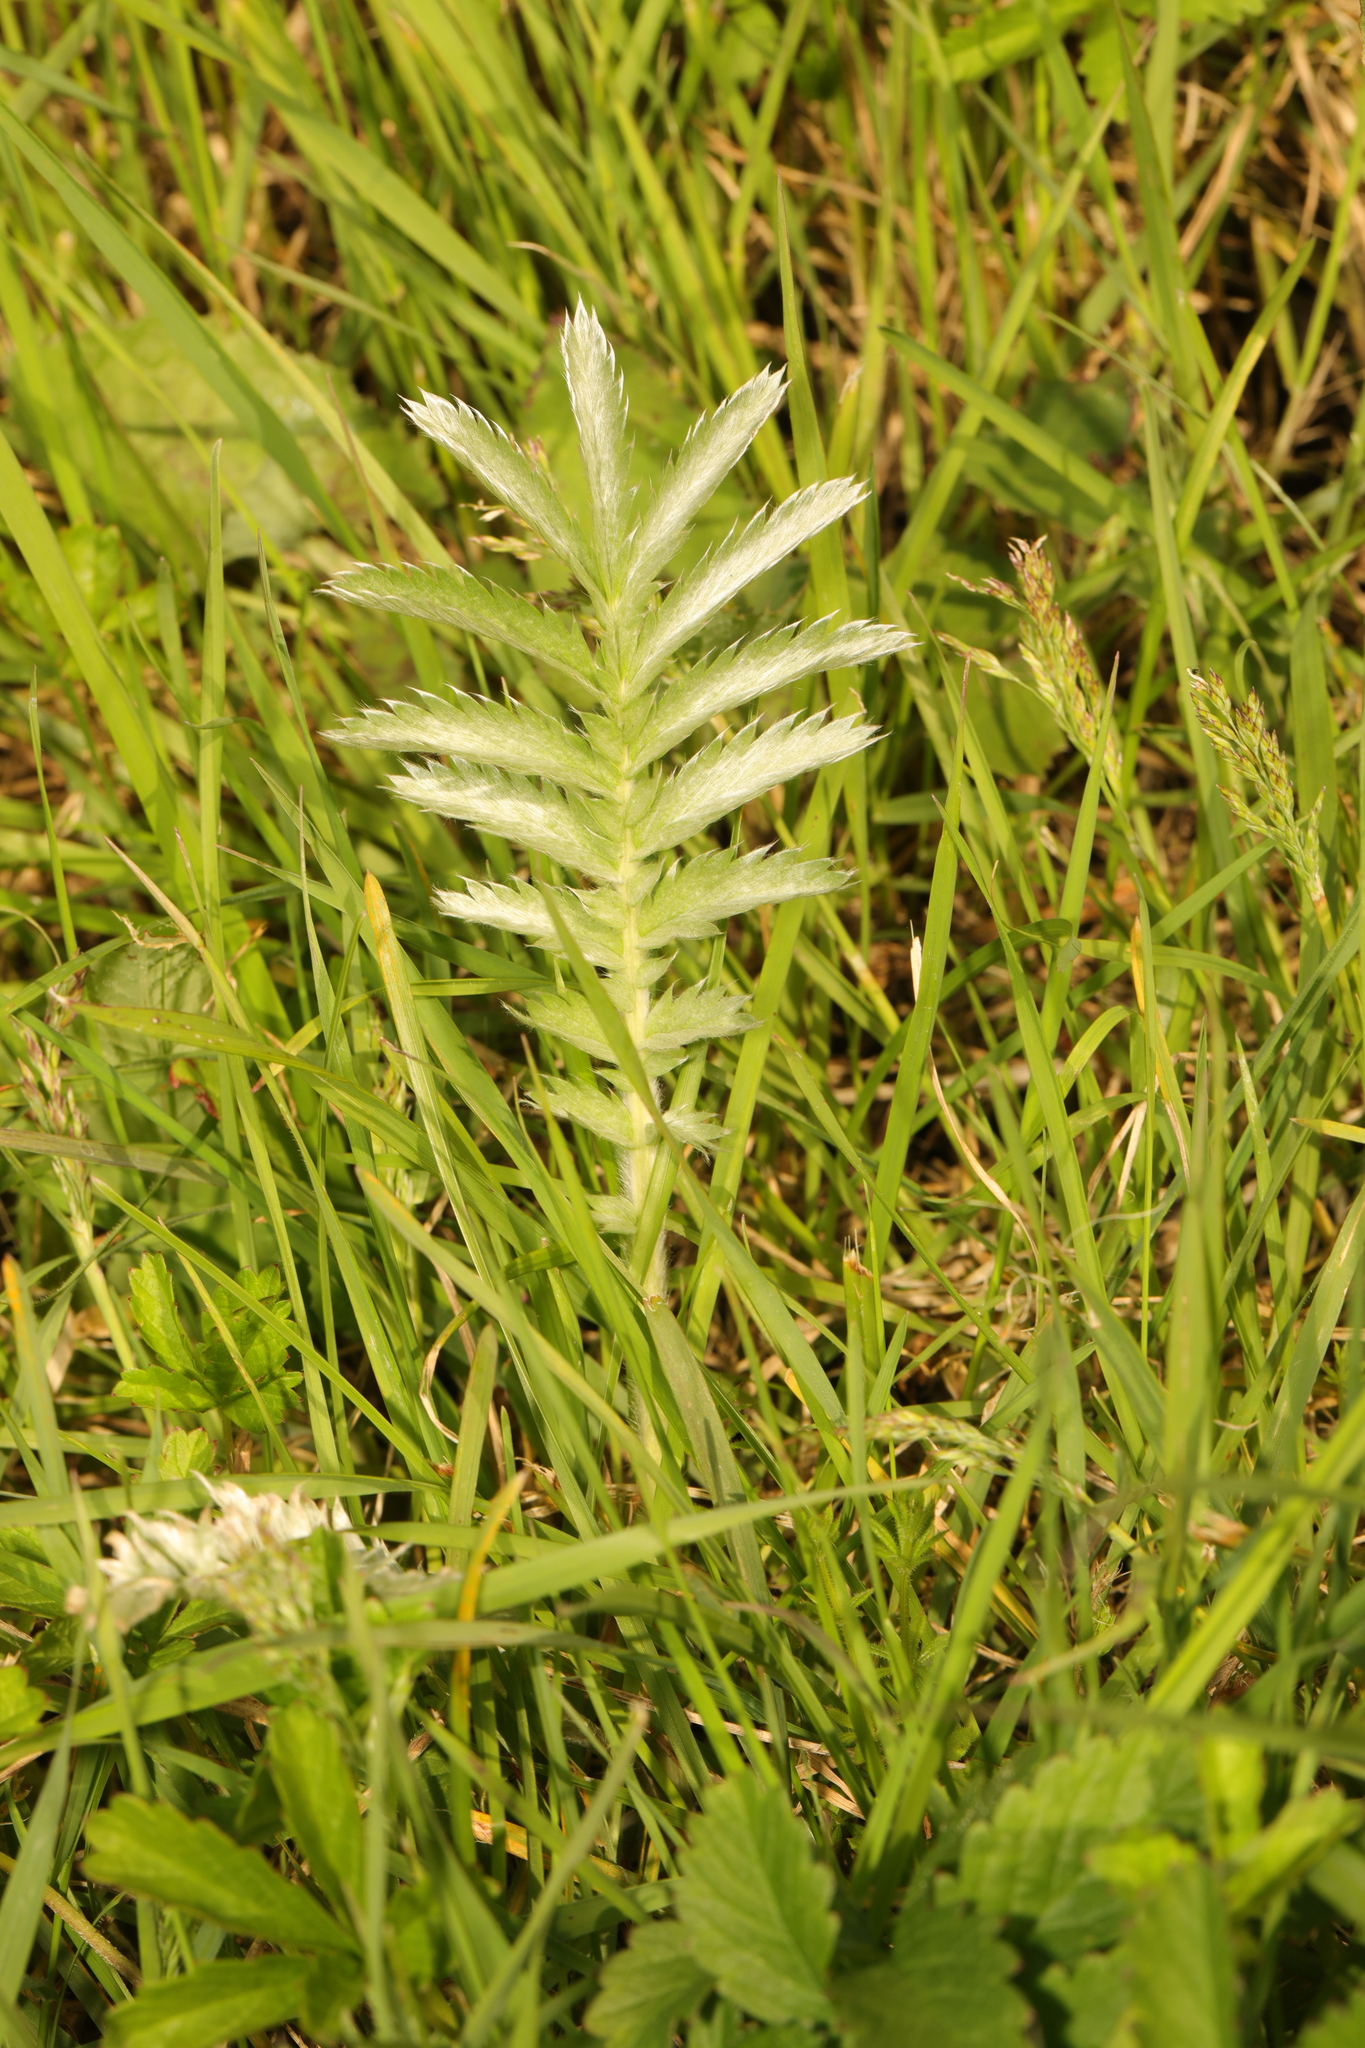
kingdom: Plantae
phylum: Tracheophyta
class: Magnoliopsida
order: Rosales
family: Rosaceae
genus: Argentina
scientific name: Argentina anserina
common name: Common silverweed
